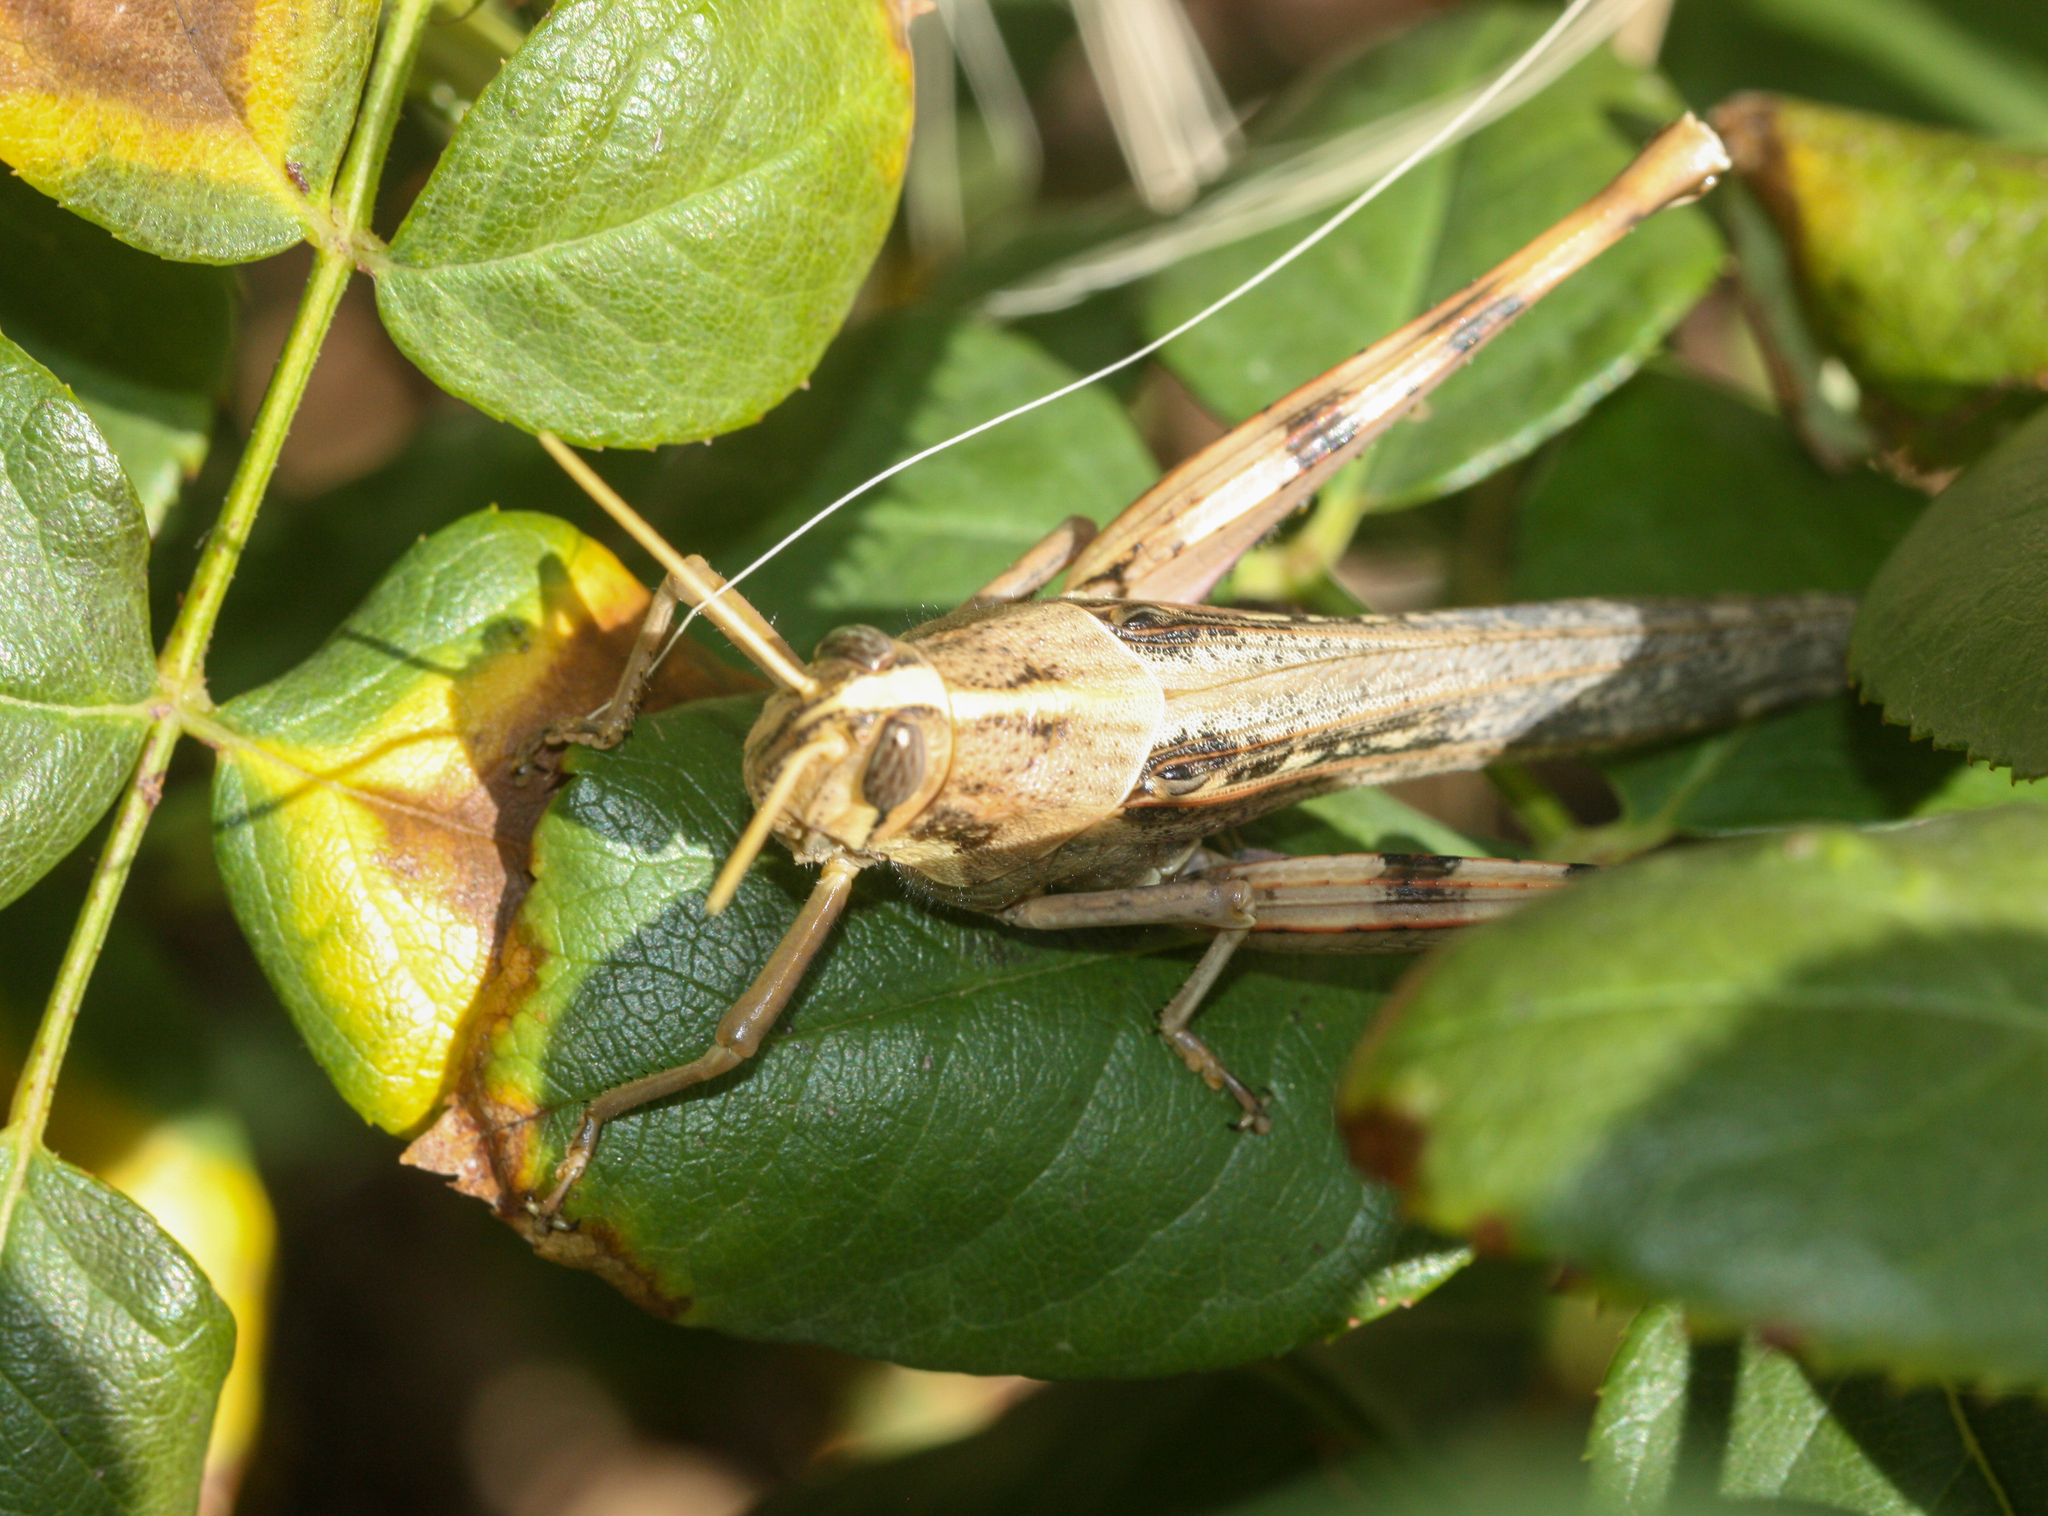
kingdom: Animalia
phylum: Arthropoda
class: Insecta
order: Orthoptera
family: Acrididae
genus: Schistocerca
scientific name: Schistocerca nitens
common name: Vagrant grasshopper
